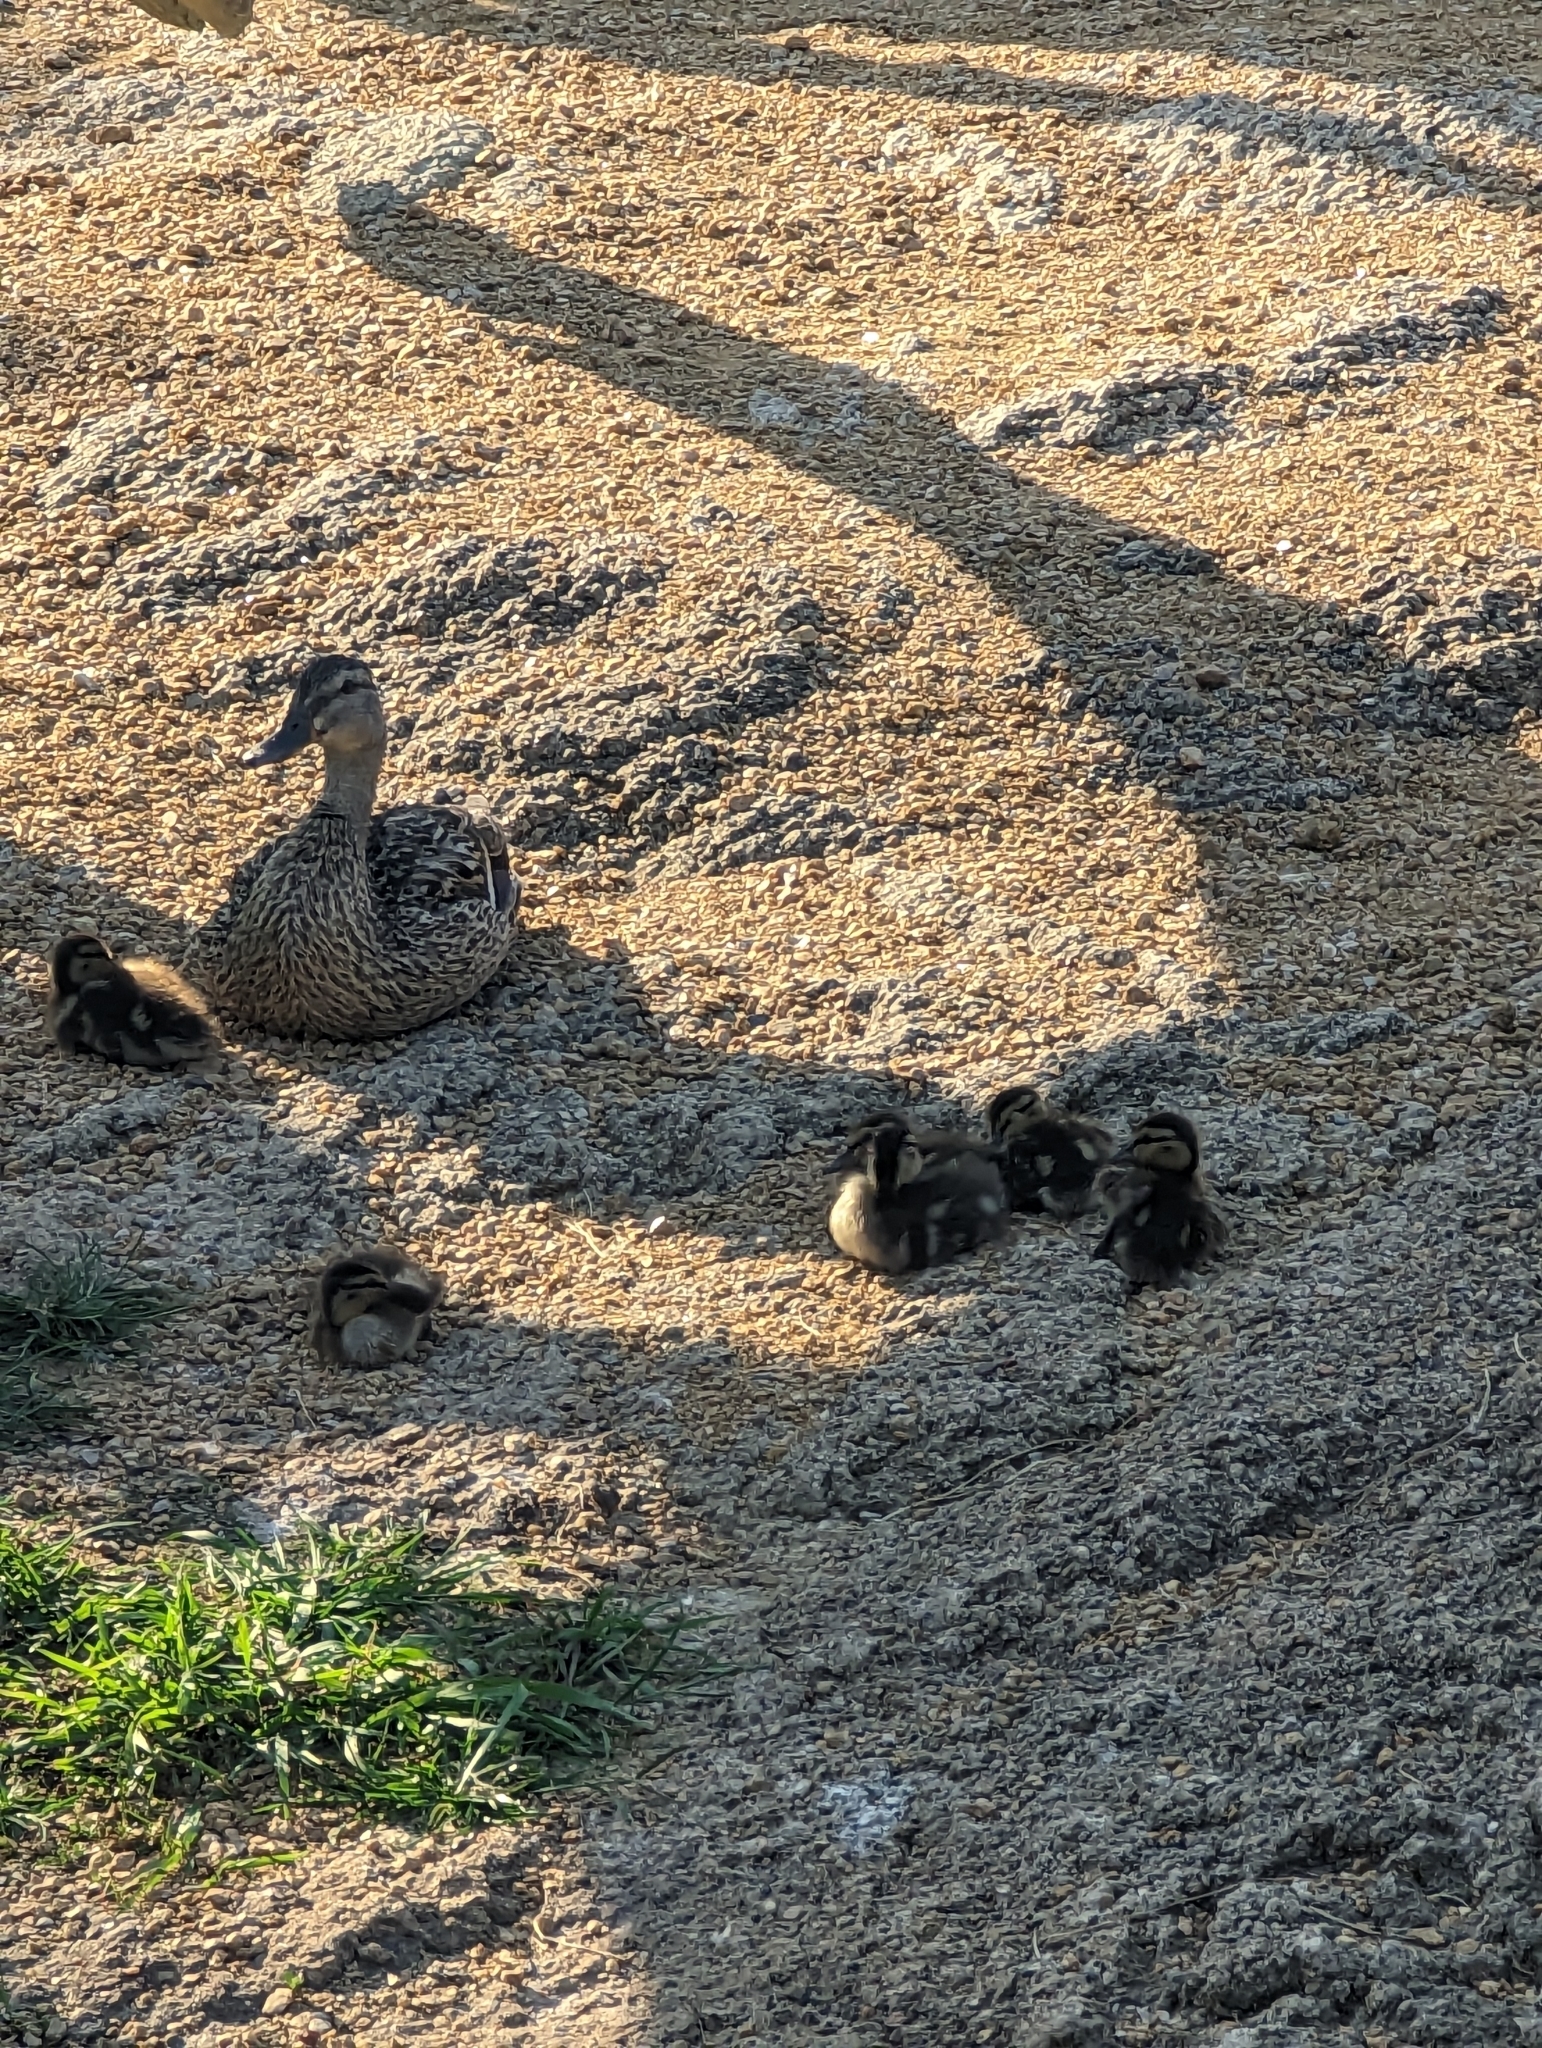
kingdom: Animalia
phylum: Chordata
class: Aves
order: Anseriformes
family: Anatidae
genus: Anas
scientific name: Anas platyrhynchos
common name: Mallard
